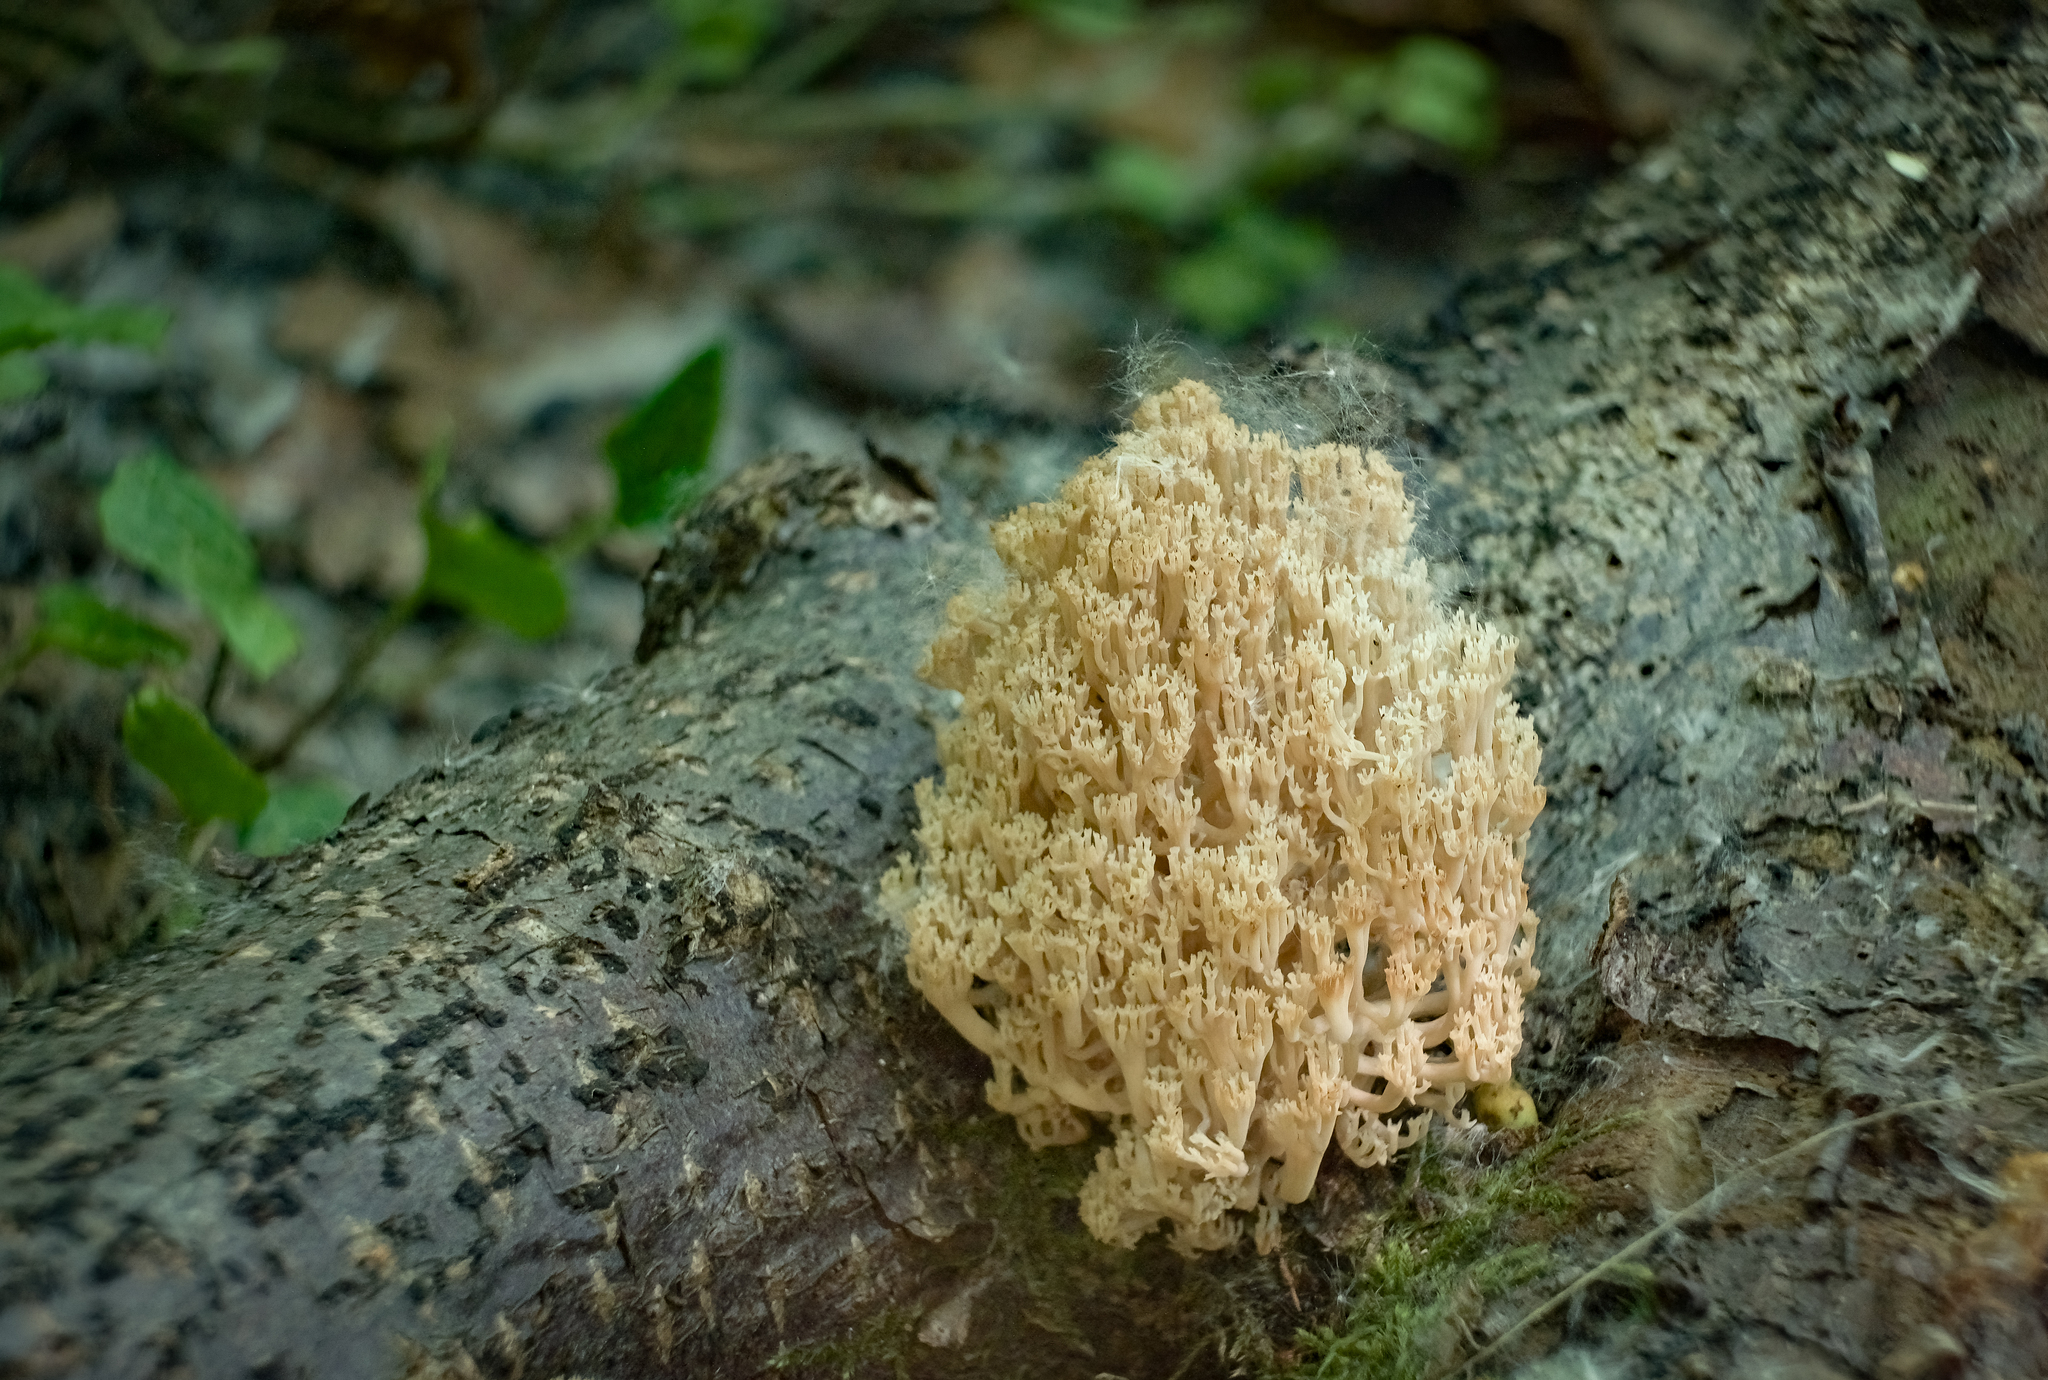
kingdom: Fungi
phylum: Basidiomycota
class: Agaricomycetes
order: Russulales
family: Auriscalpiaceae
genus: Artomyces
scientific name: Artomyces pyxidatus
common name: Crown-tipped coral fungus
